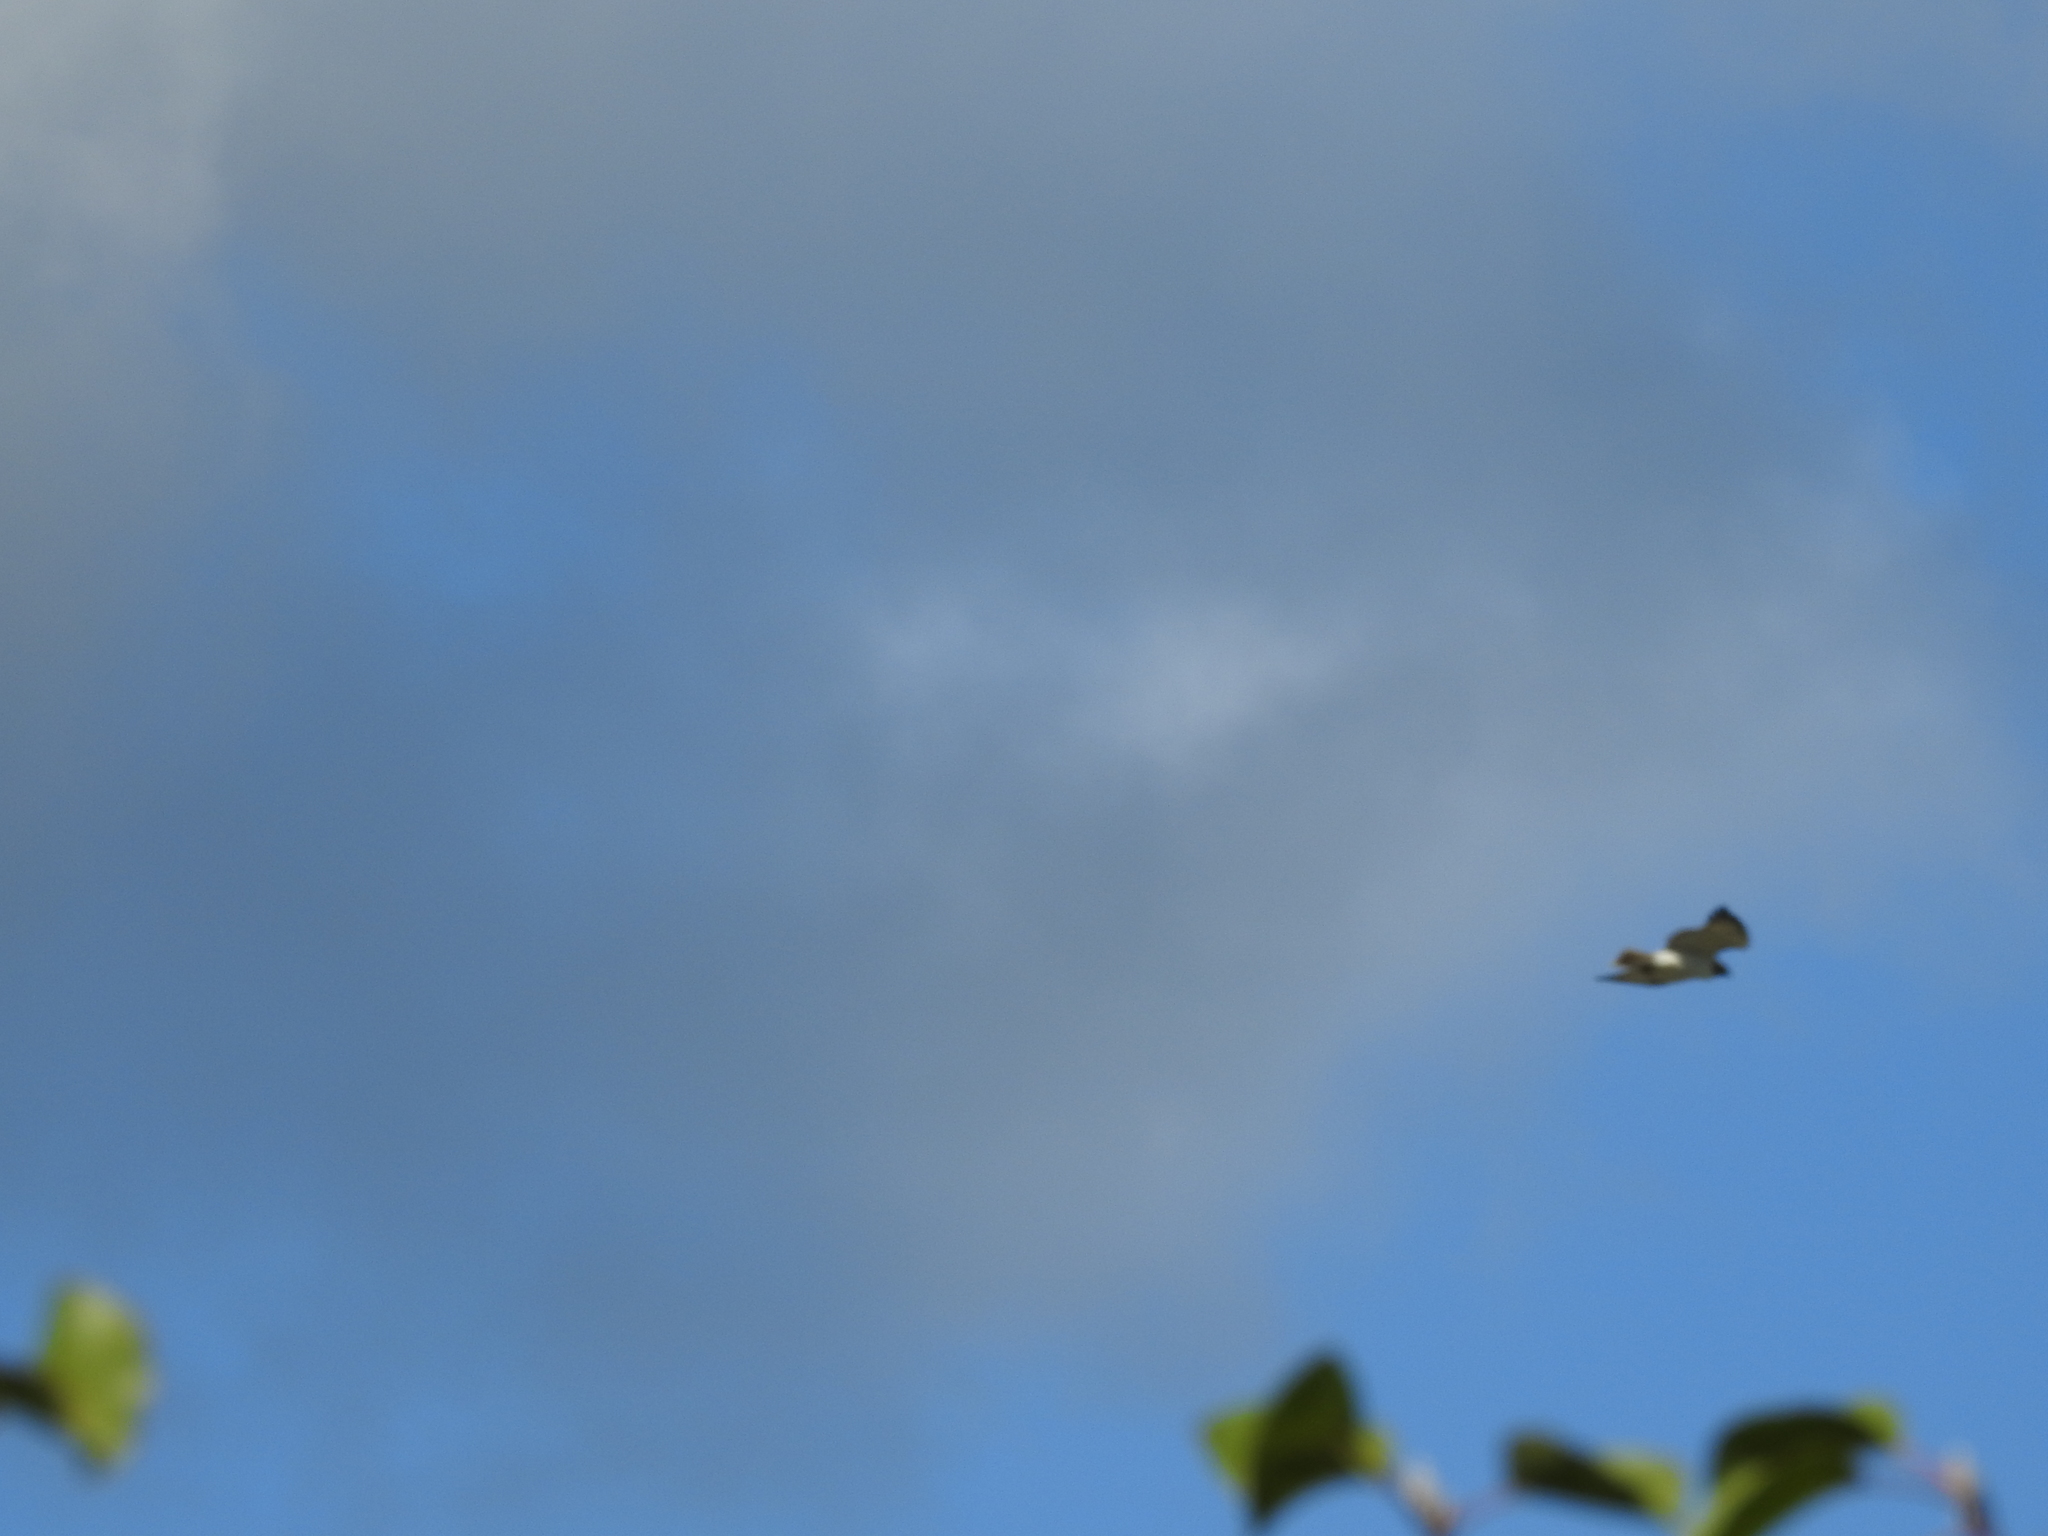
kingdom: Animalia
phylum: Chordata
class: Aves
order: Accipitriformes
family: Accipitridae
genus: Buteo
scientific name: Buteo jamaicensis
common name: Red-tailed hawk
